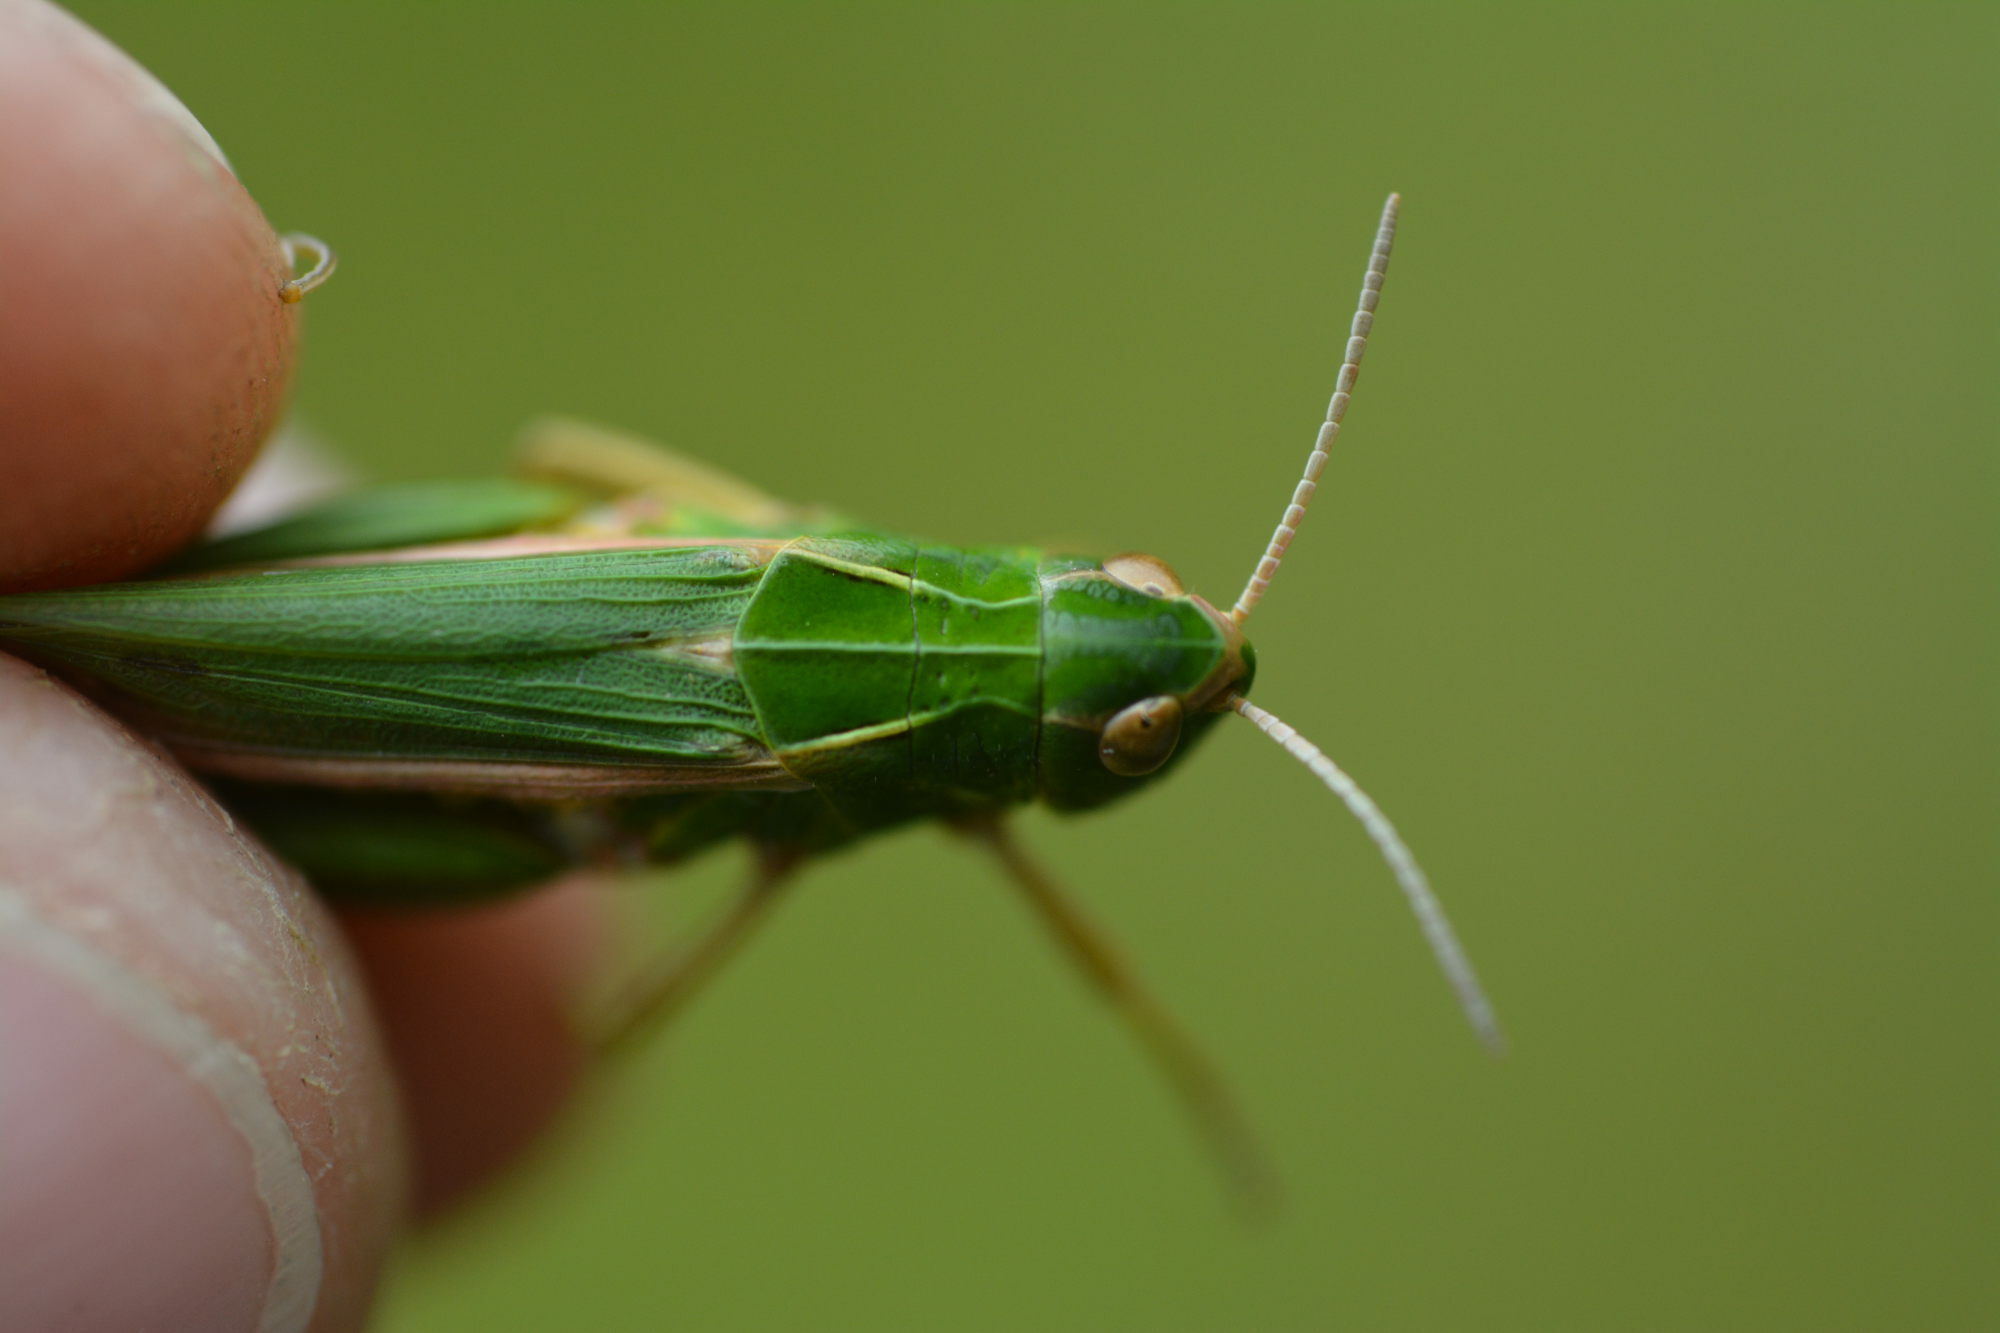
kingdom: Animalia
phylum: Arthropoda
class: Insecta
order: Orthoptera
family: Acrididae
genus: Omocestus
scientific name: Omocestus viridulus
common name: Common green grasshopper
